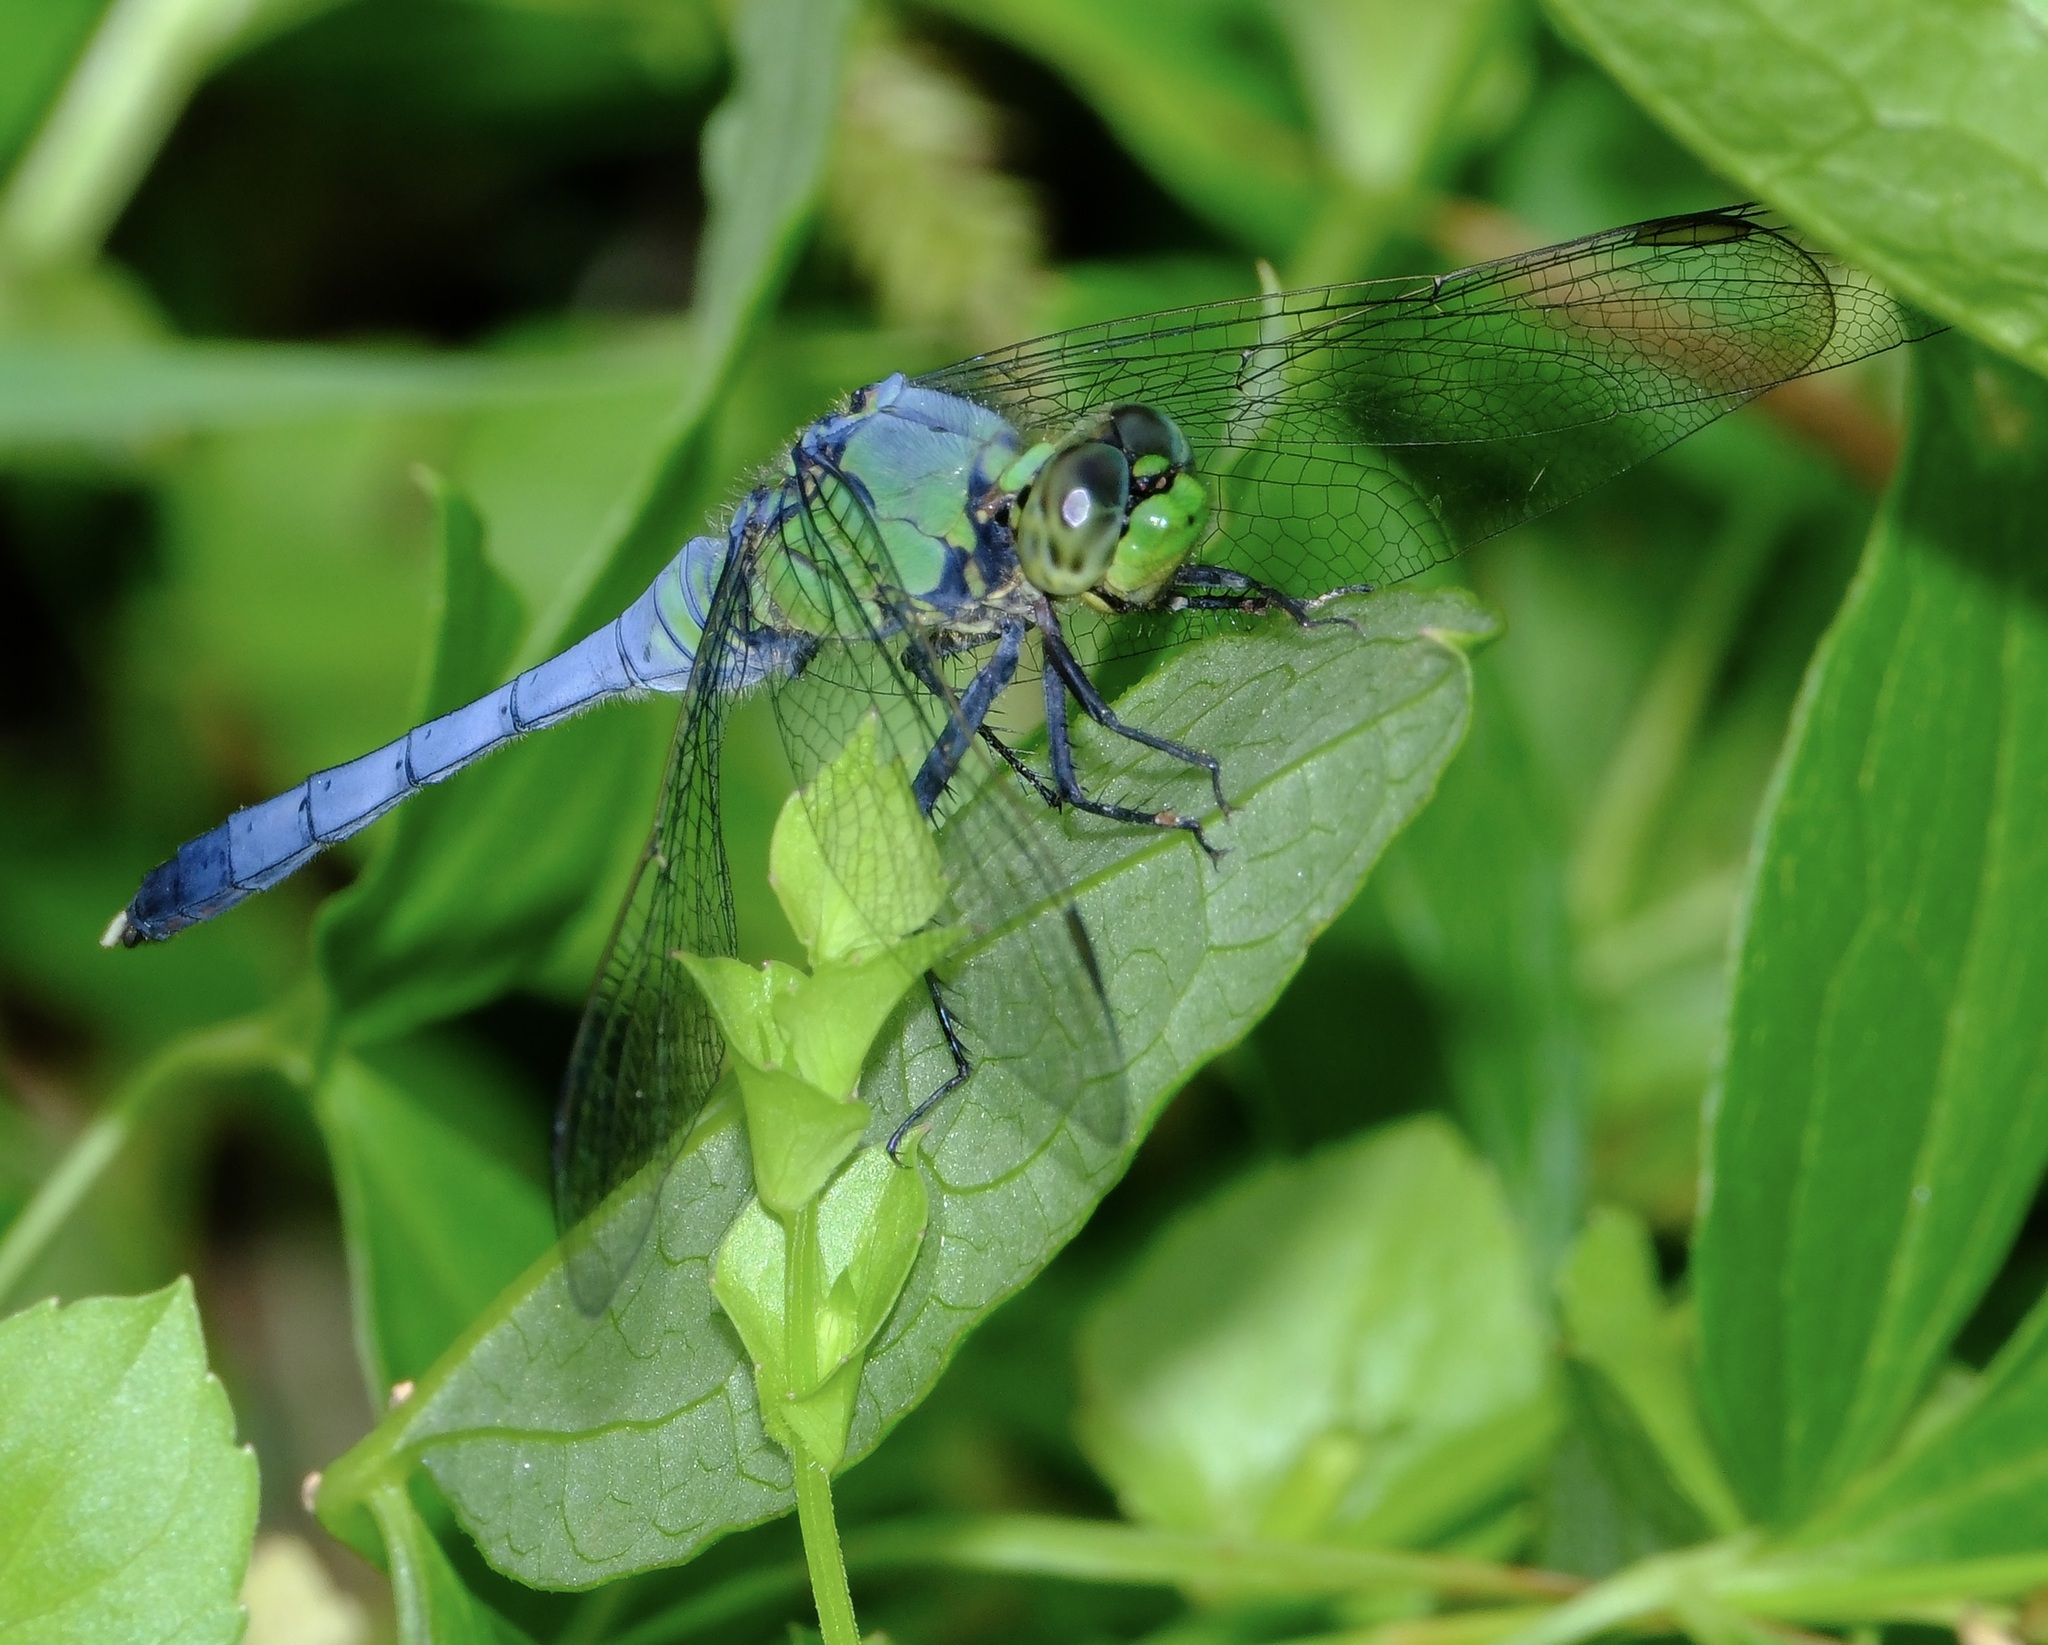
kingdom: Animalia
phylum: Arthropoda
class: Insecta
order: Odonata
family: Libellulidae
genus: Erythemis
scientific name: Erythemis simplicicollis
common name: Eastern pondhawk
